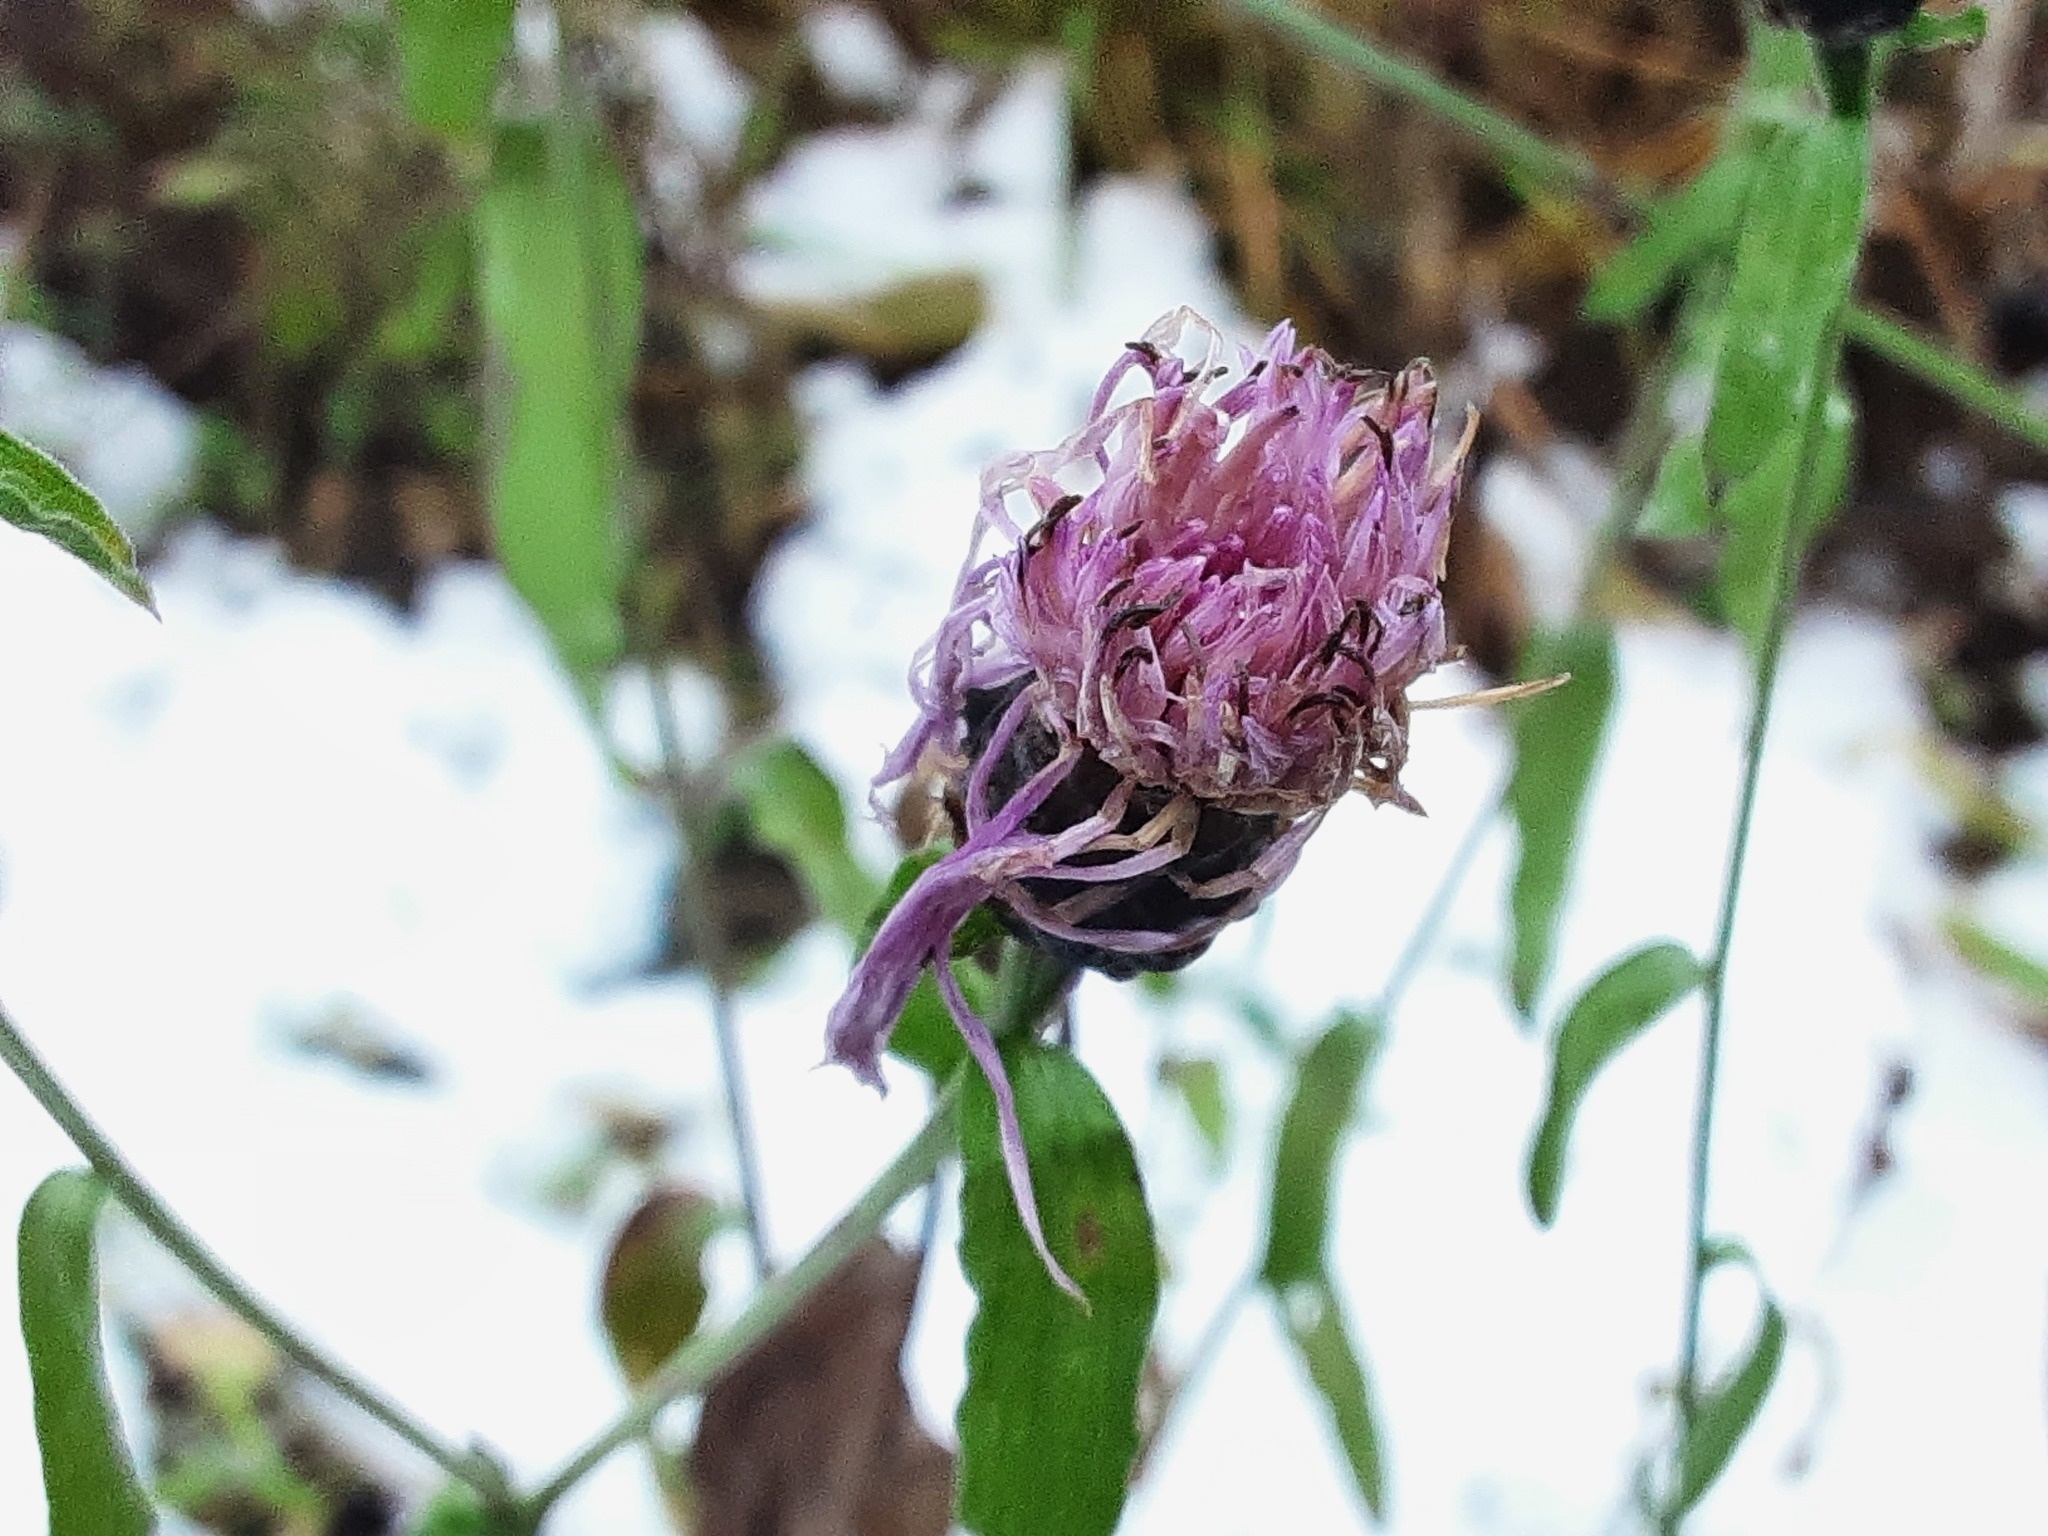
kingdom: Plantae
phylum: Tracheophyta
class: Magnoliopsida
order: Asterales
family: Asteraceae
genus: Centaurea
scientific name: Centaurea jacea
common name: Brown knapweed
